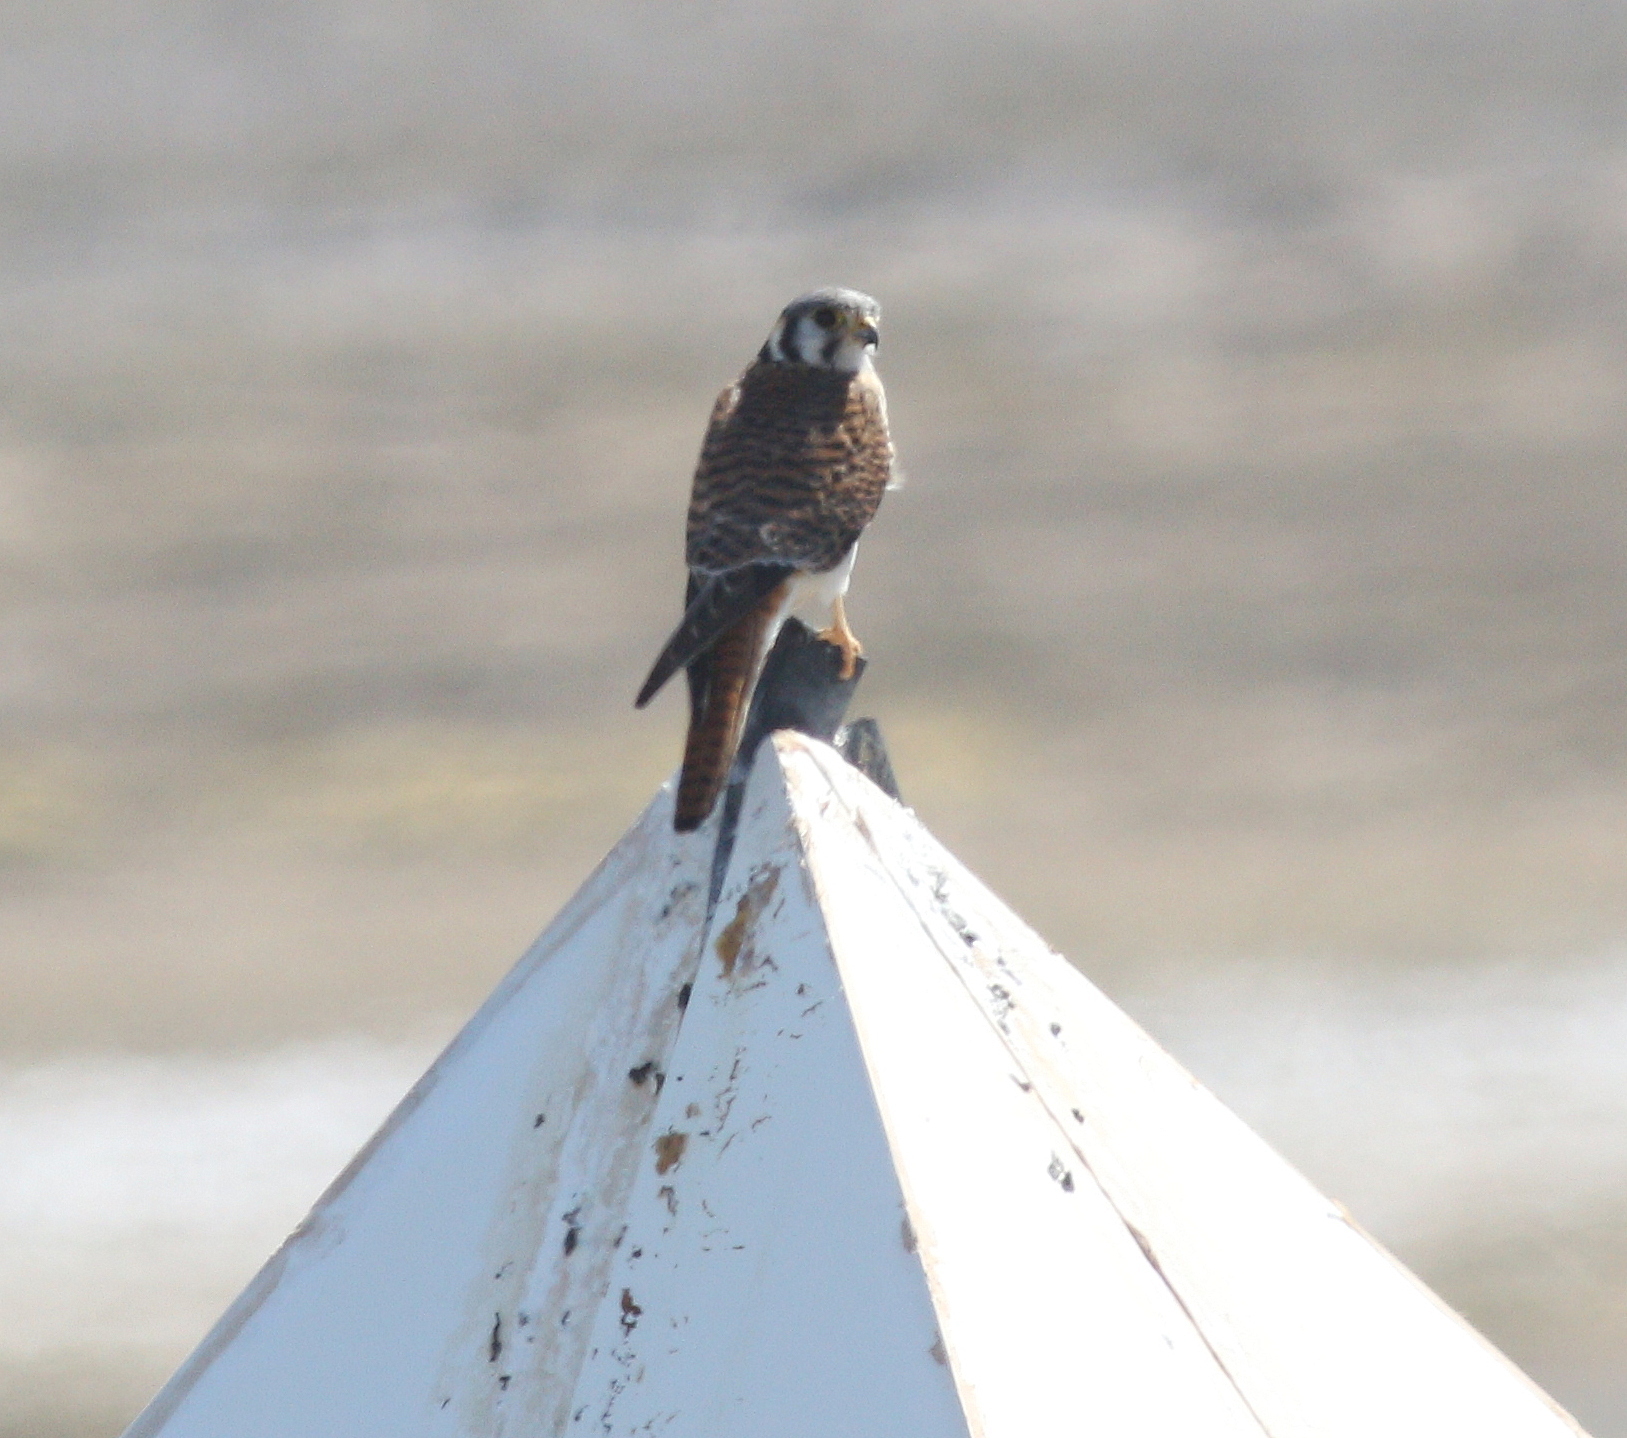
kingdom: Animalia
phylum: Chordata
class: Aves
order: Falconiformes
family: Falconidae
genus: Falco
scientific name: Falco sparverius
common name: American kestrel
